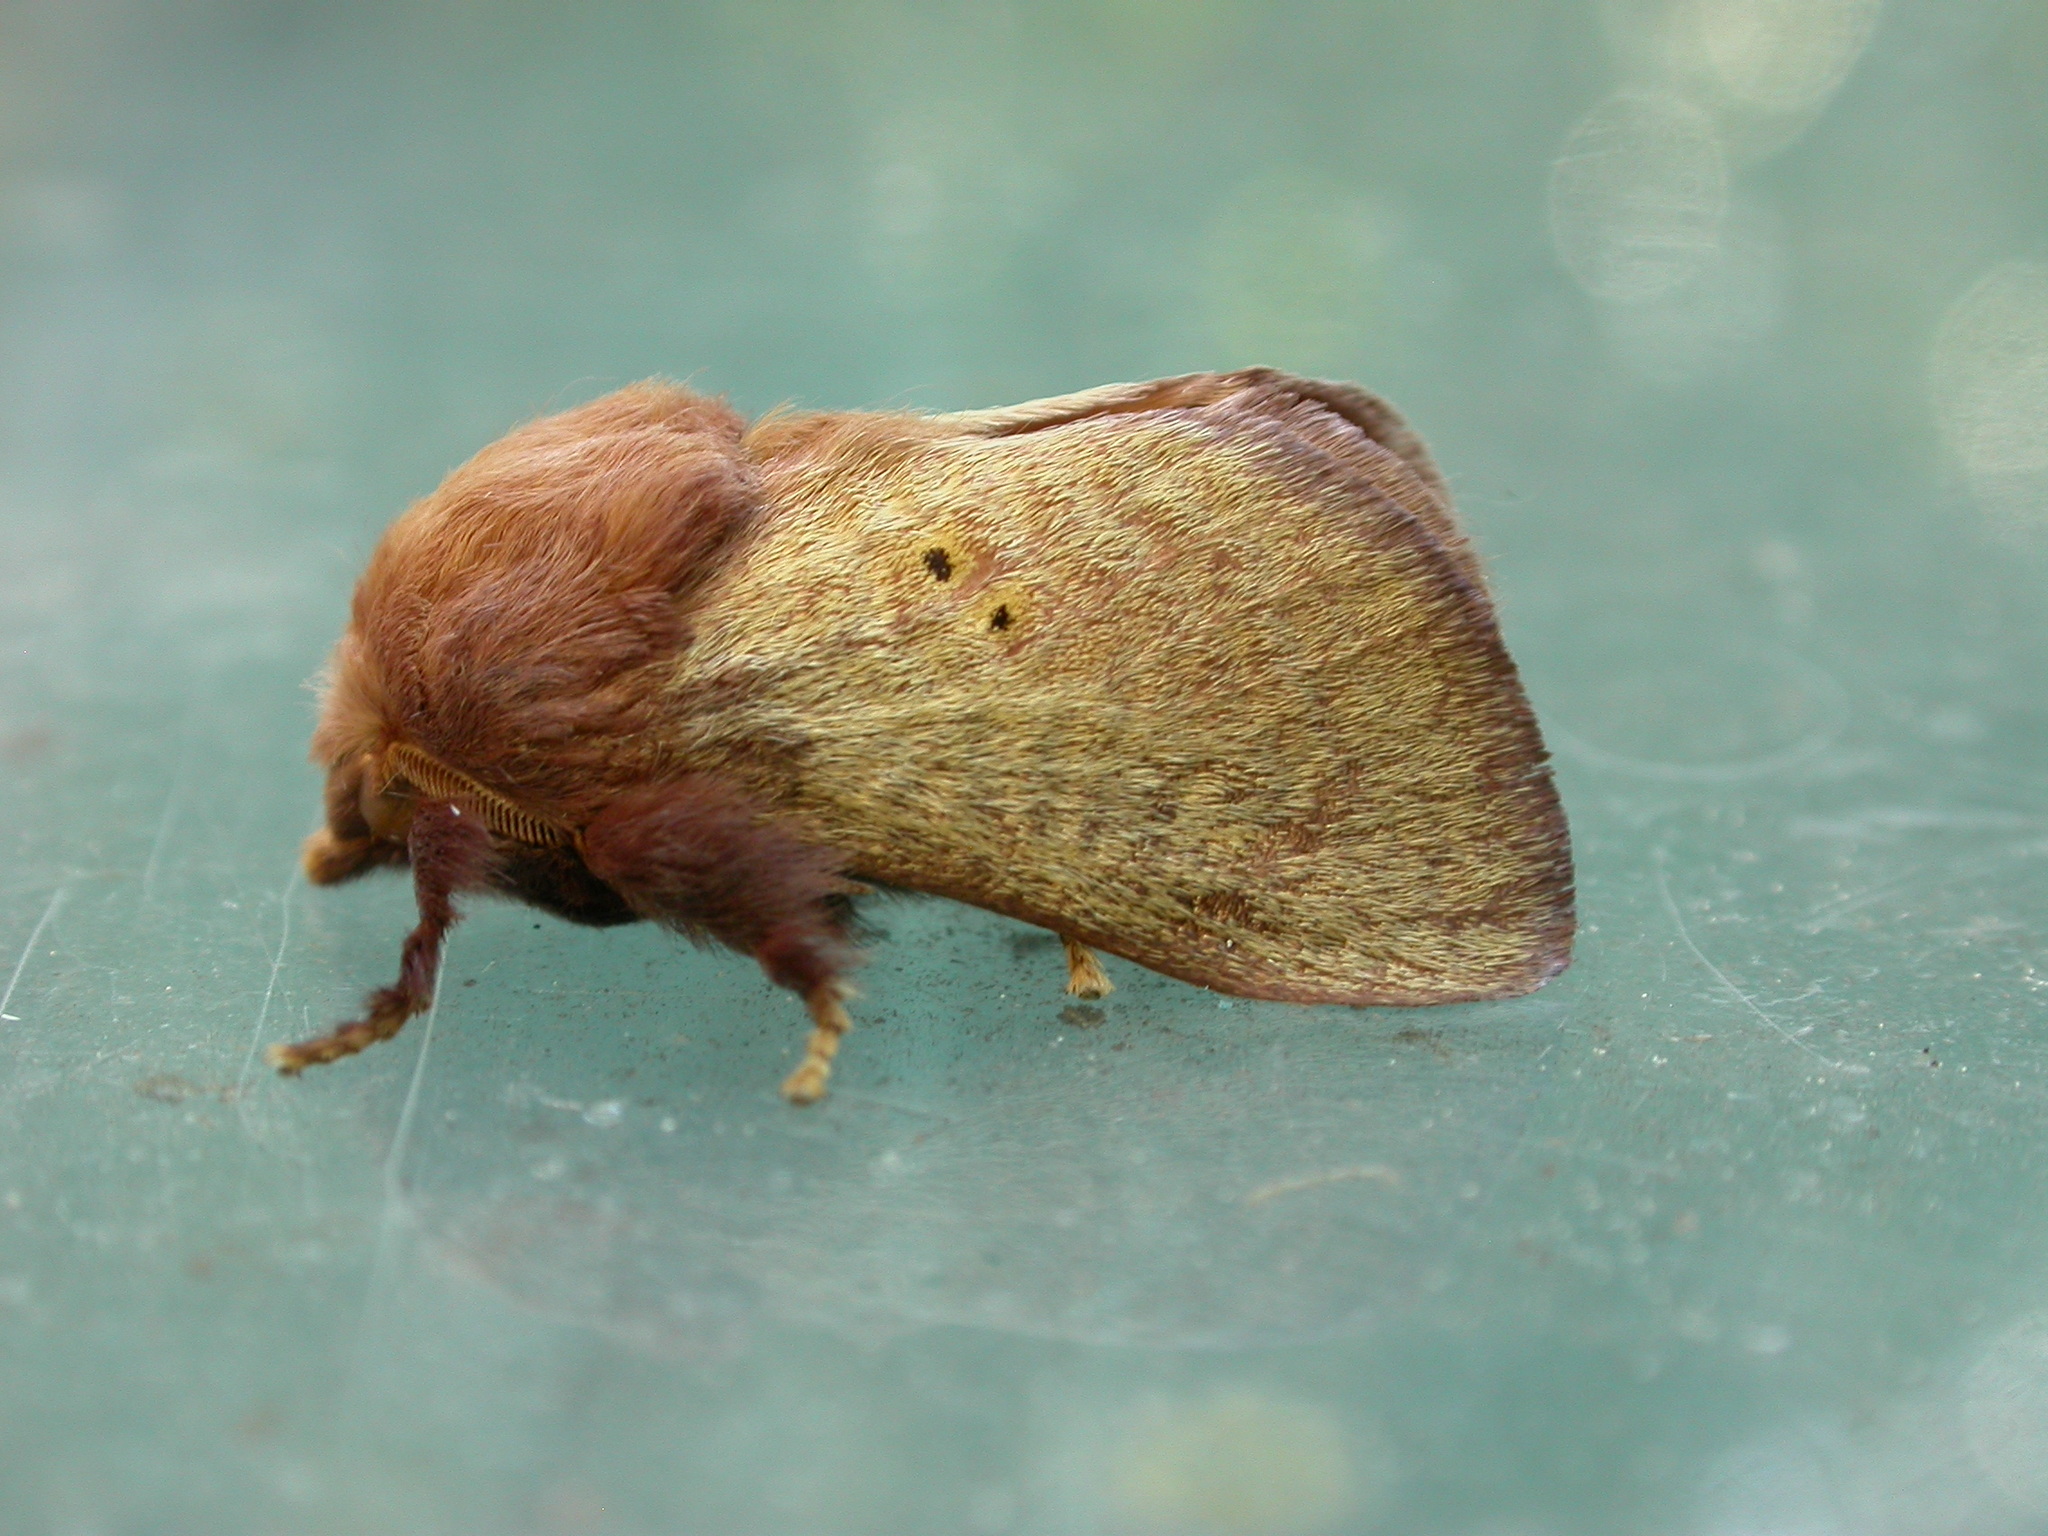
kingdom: Animalia
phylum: Arthropoda
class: Insecta
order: Lepidoptera
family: Limacodidae
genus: Doratifera
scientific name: Doratifera quadriguttata
